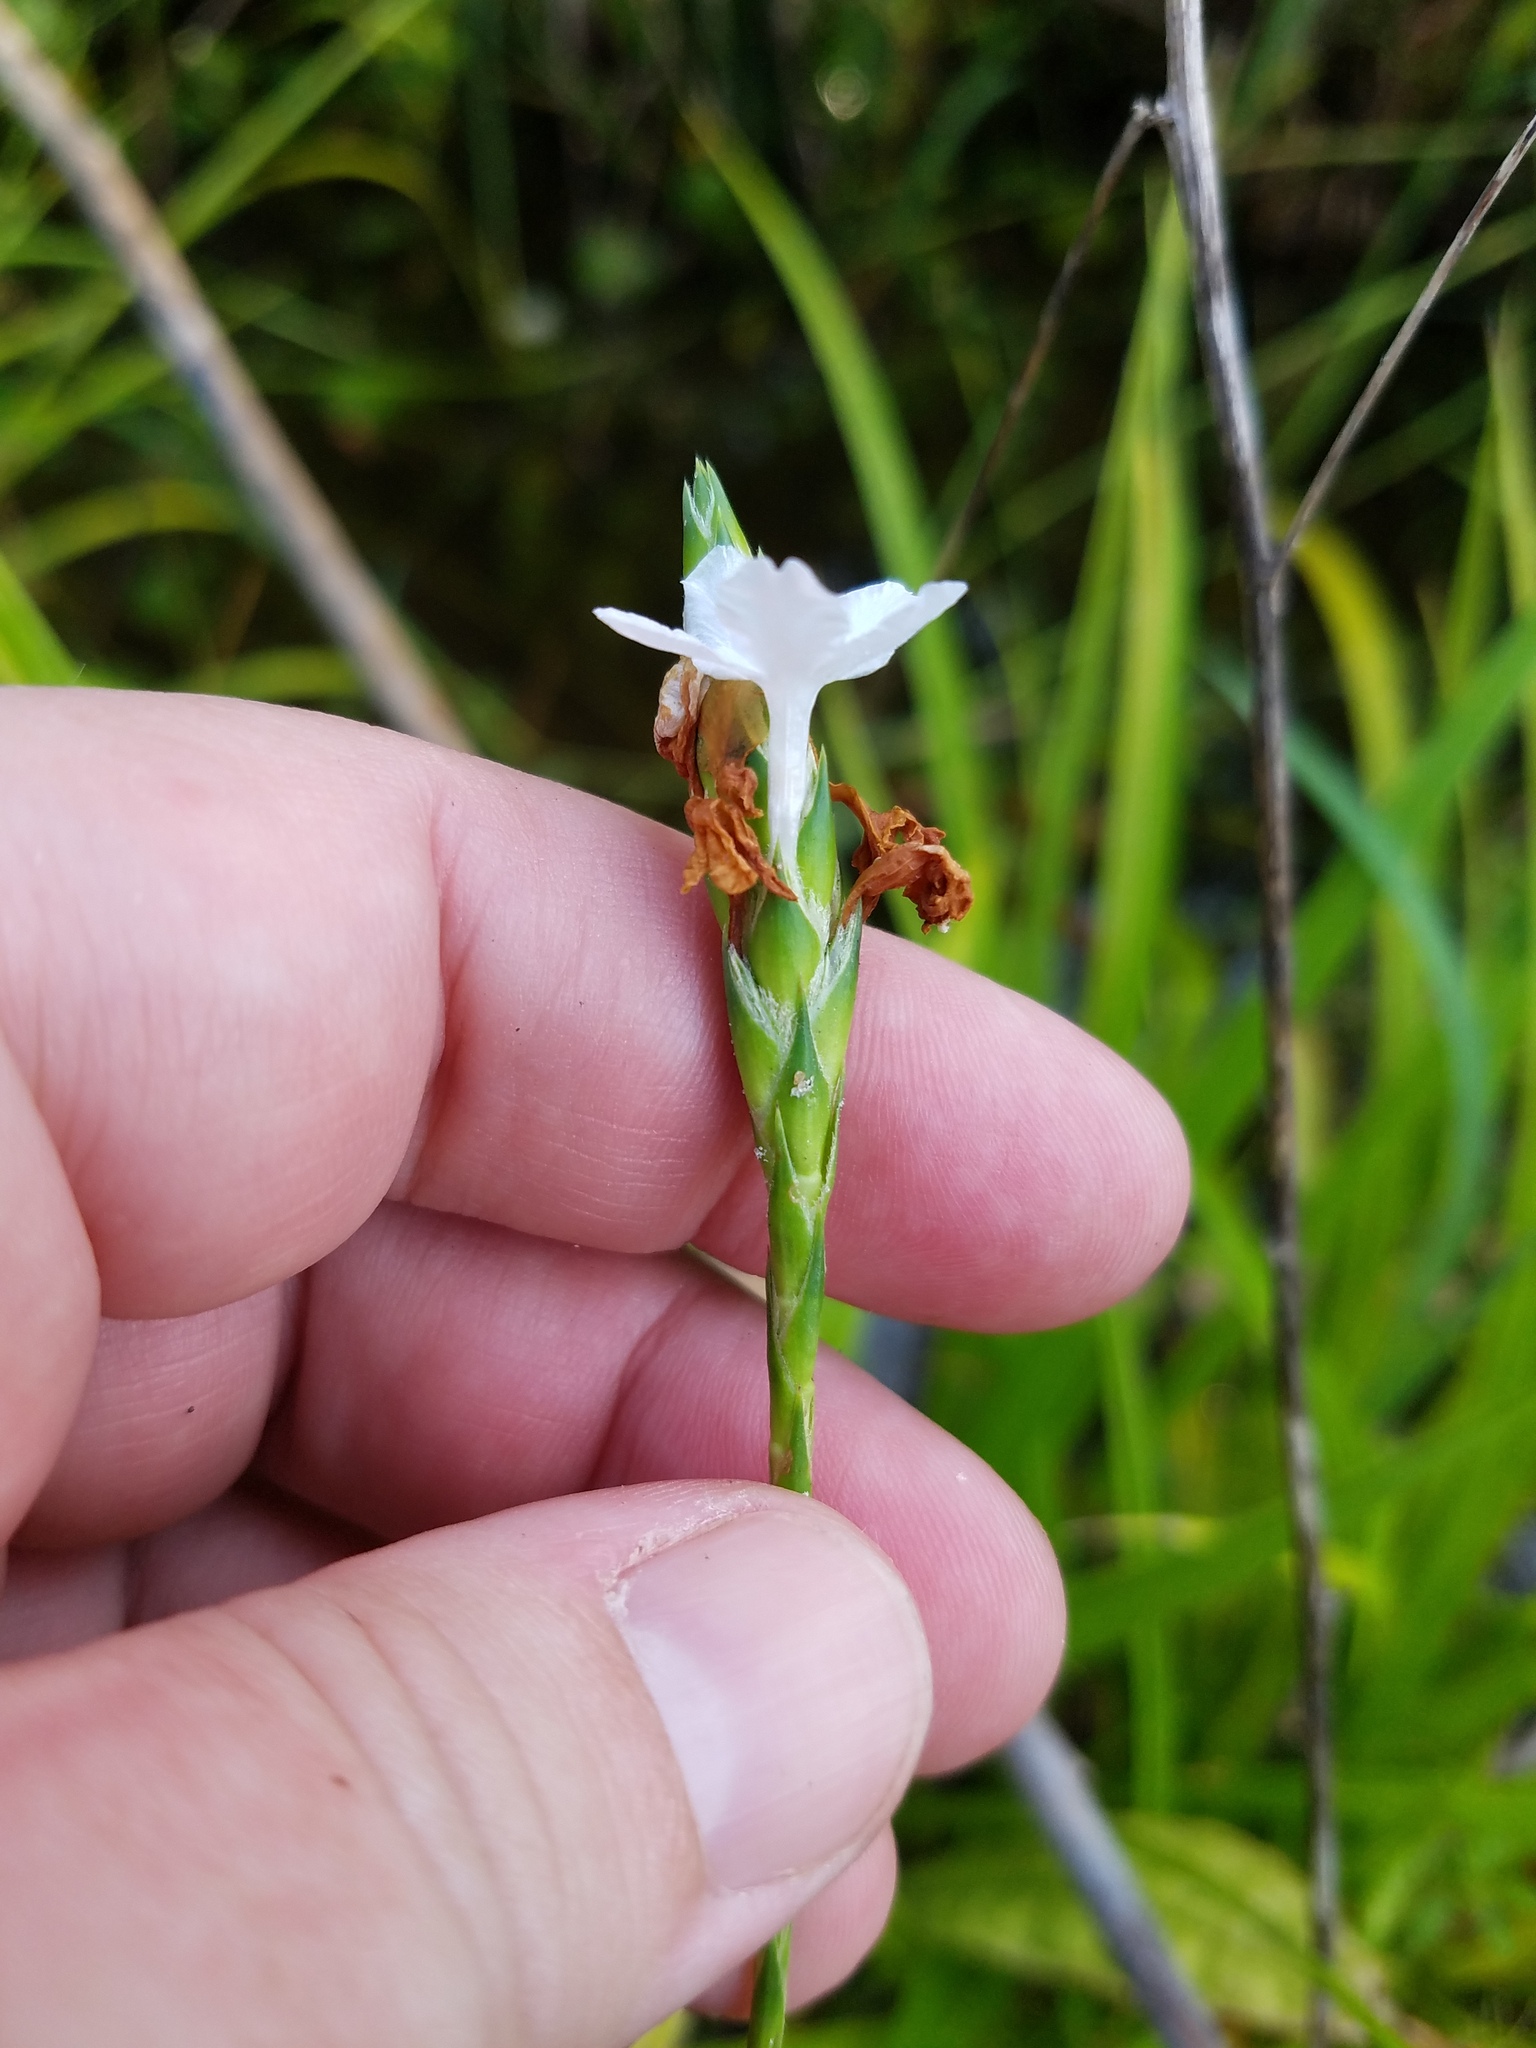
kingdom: Plantae
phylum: Tracheophyta
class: Magnoliopsida
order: Lamiales
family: Acanthaceae
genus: Elytraria
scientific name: Elytraria caroliniensis
